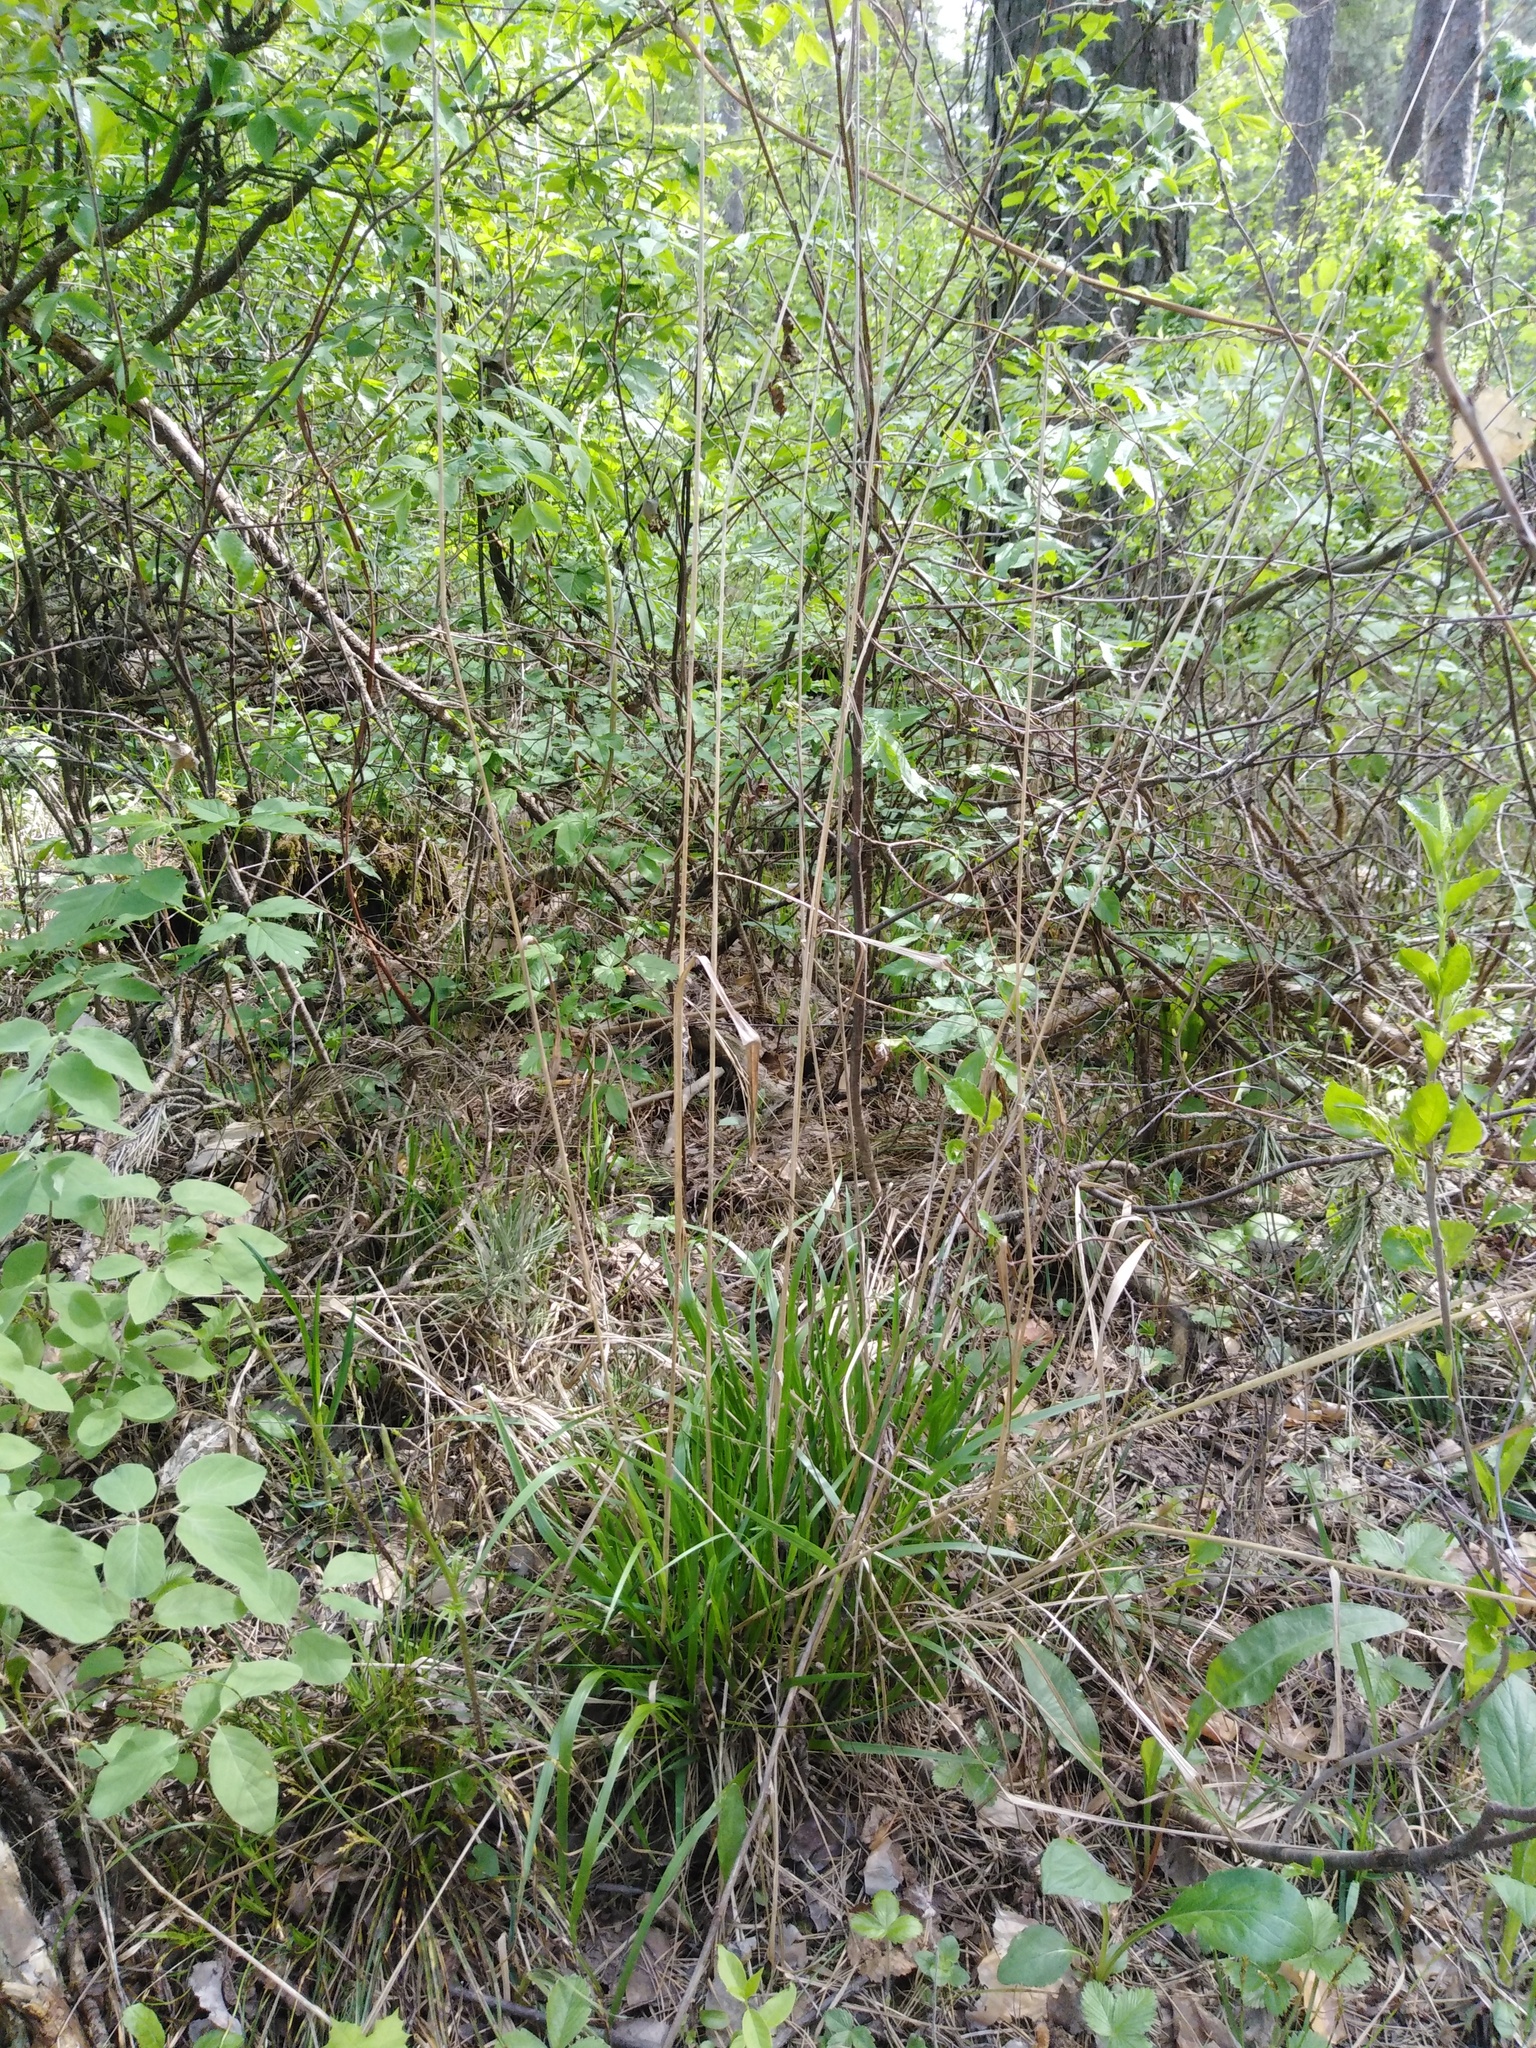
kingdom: Plantae
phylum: Tracheophyta
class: Liliopsida
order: Poales
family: Poaceae
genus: Calamagrostis
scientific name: Calamagrostis arundinacea
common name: Metskastik
